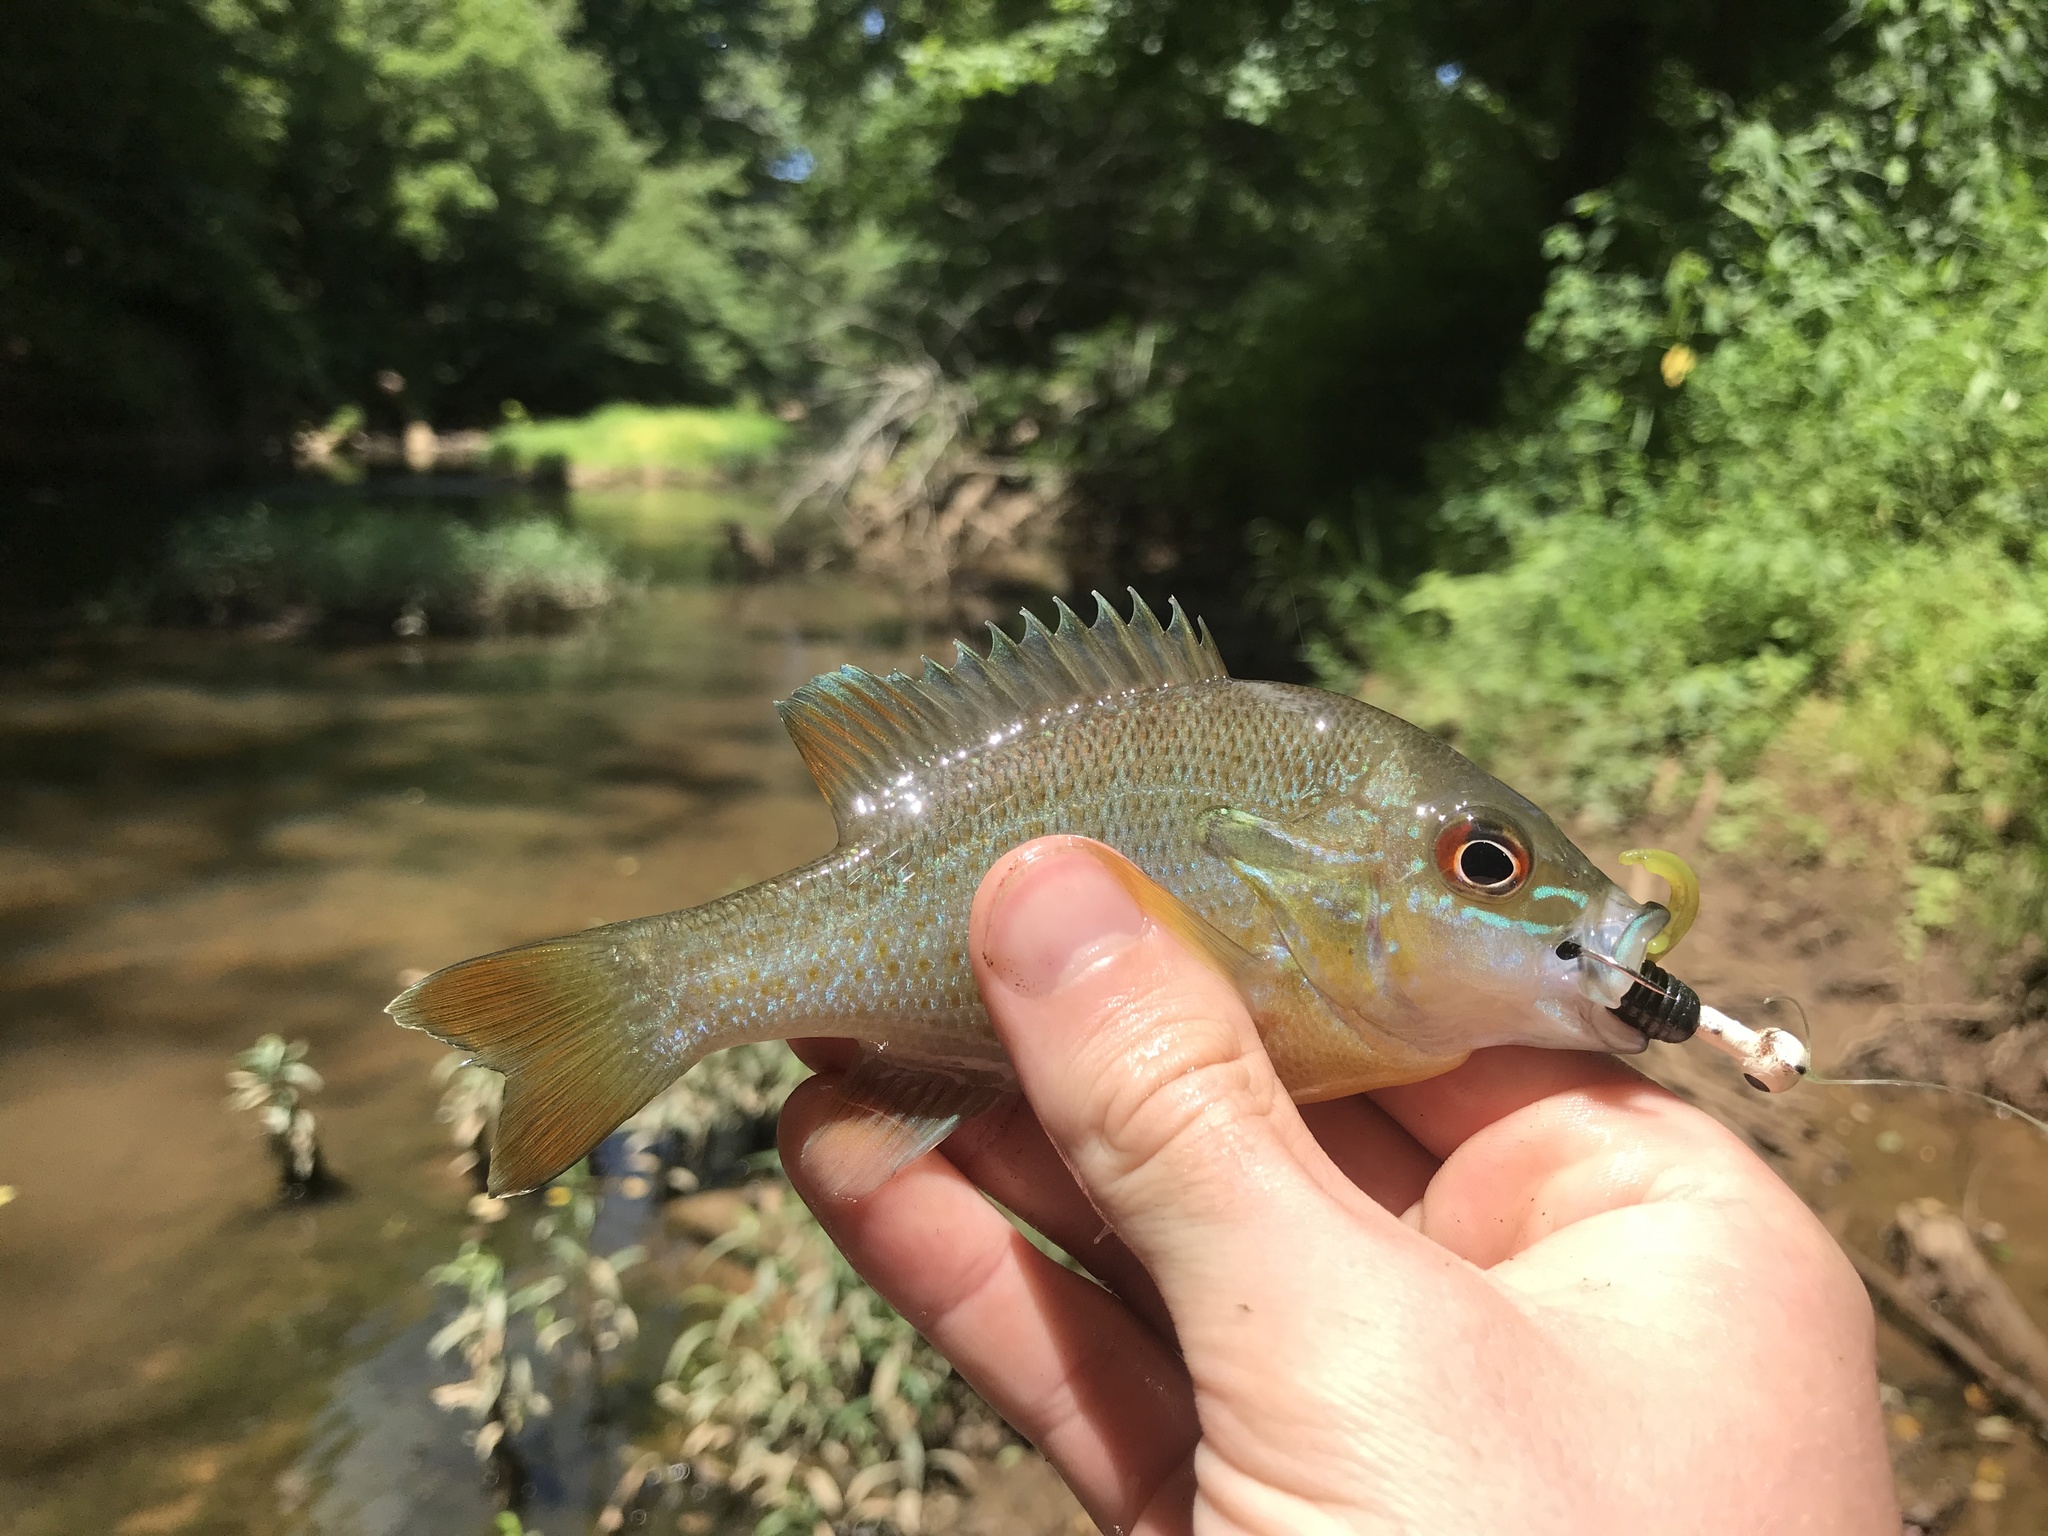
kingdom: Animalia
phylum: Chordata
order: Perciformes
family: Centrarchidae
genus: Lepomis
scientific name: Lepomis auritus
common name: Redbreast sunfish
